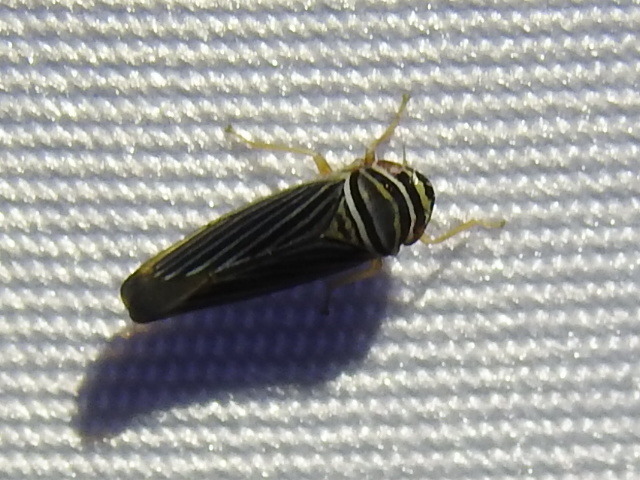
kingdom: Animalia
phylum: Arthropoda
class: Insecta
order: Hemiptera
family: Cicadellidae
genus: Tylozygus
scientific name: Tylozygus bifidus
